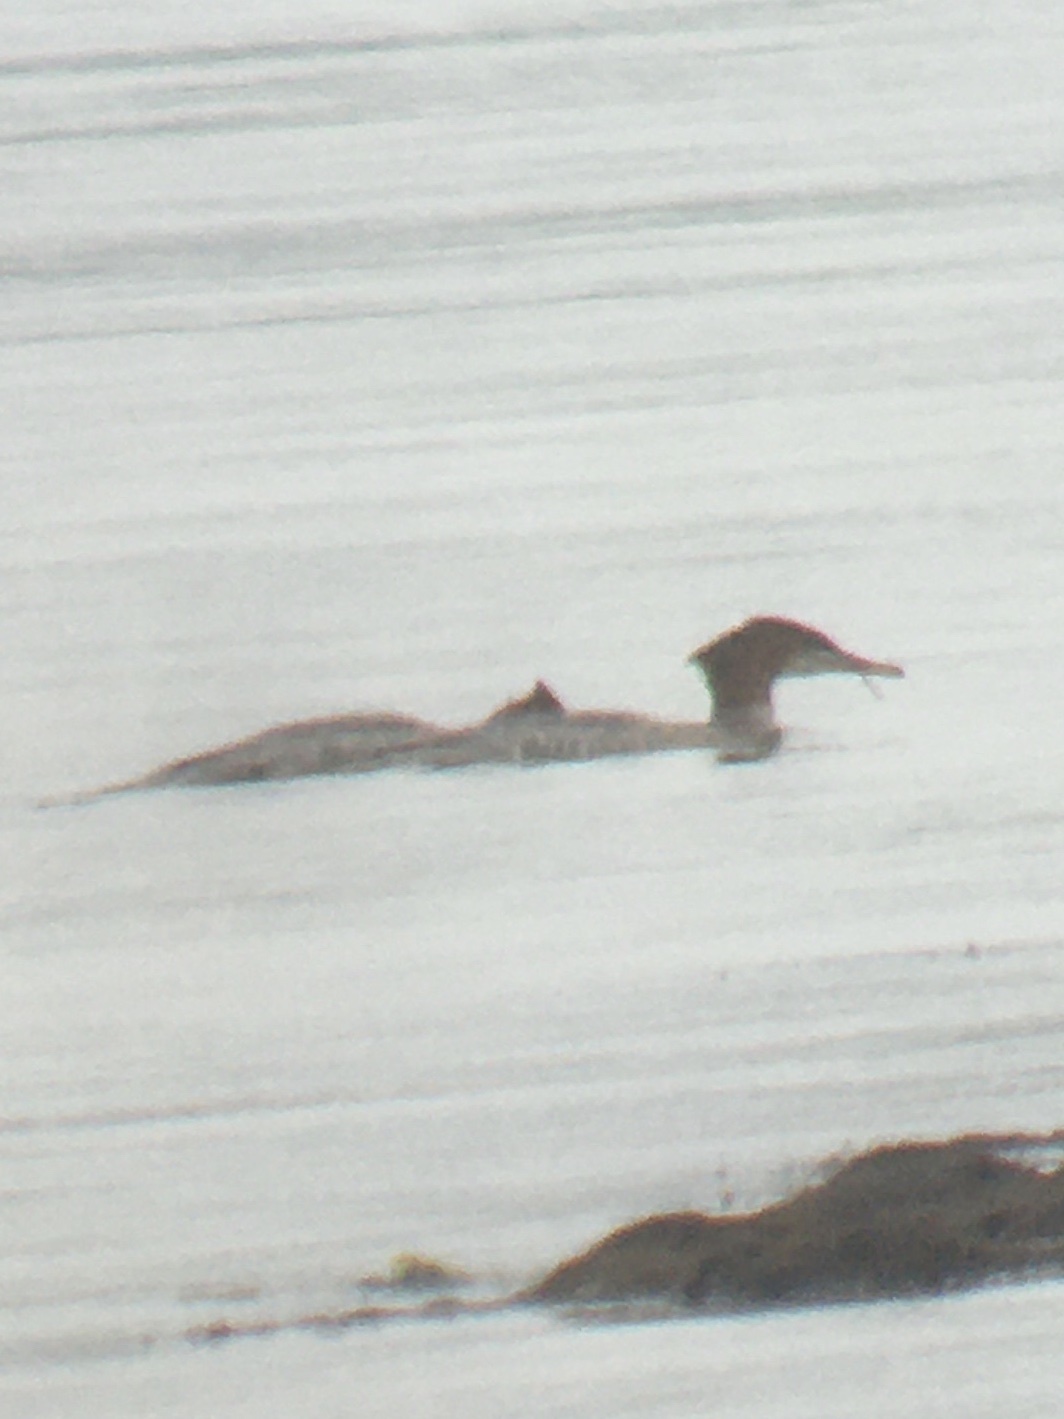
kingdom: Animalia
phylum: Chordata
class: Aves
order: Anseriformes
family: Anatidae
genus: Mergus
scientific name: Mergus merganser
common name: Common merganser
